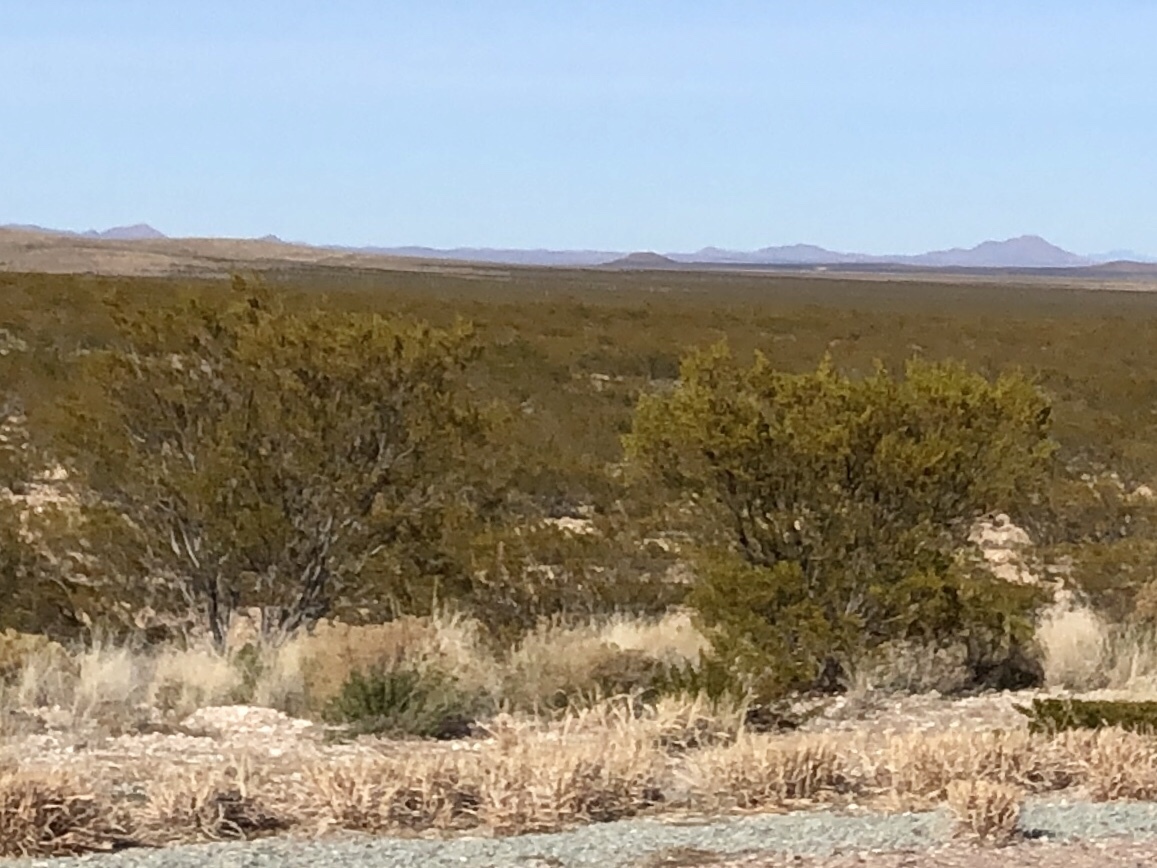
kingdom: Plantae
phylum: Tracheophyta
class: Magnoliopsida
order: Zygophyllales
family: Zygophyllaceae
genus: Larrea
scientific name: Larrea tridentata
